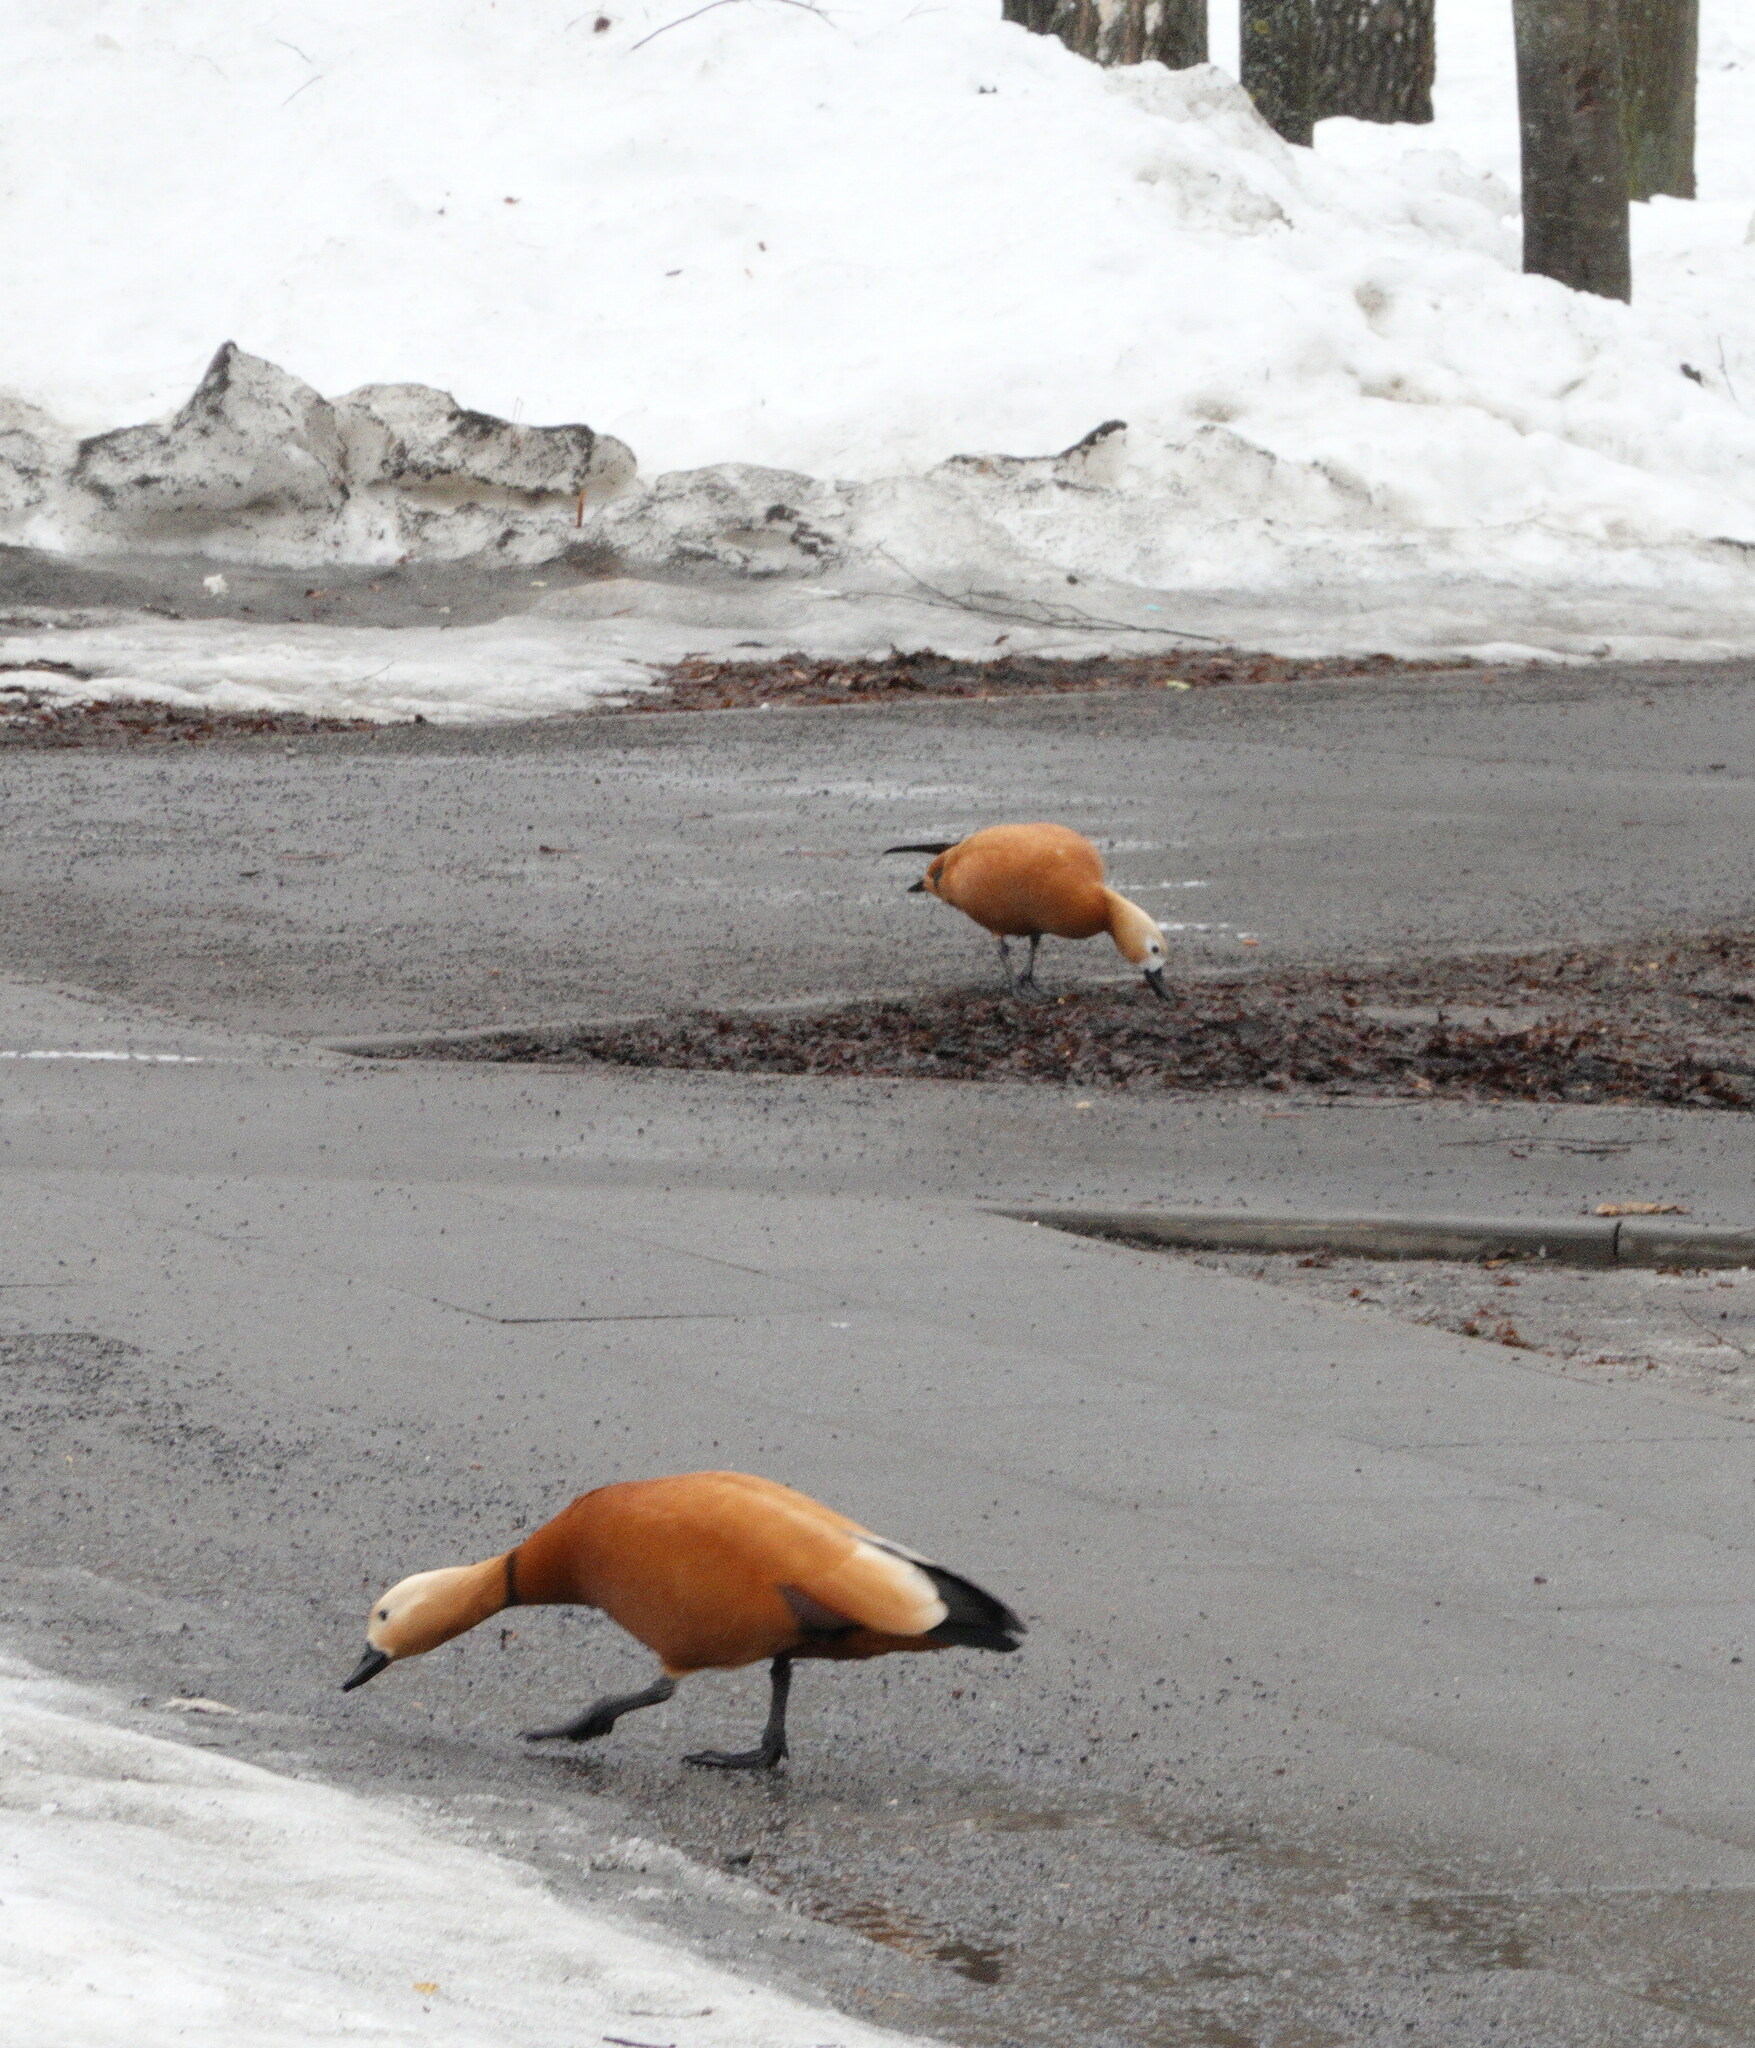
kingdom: Animalia
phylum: Chordata
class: Aves
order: Anseriformes
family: Anatidae
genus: Tadorna
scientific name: Tadorna ferruginea
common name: Ruddy shelduck
